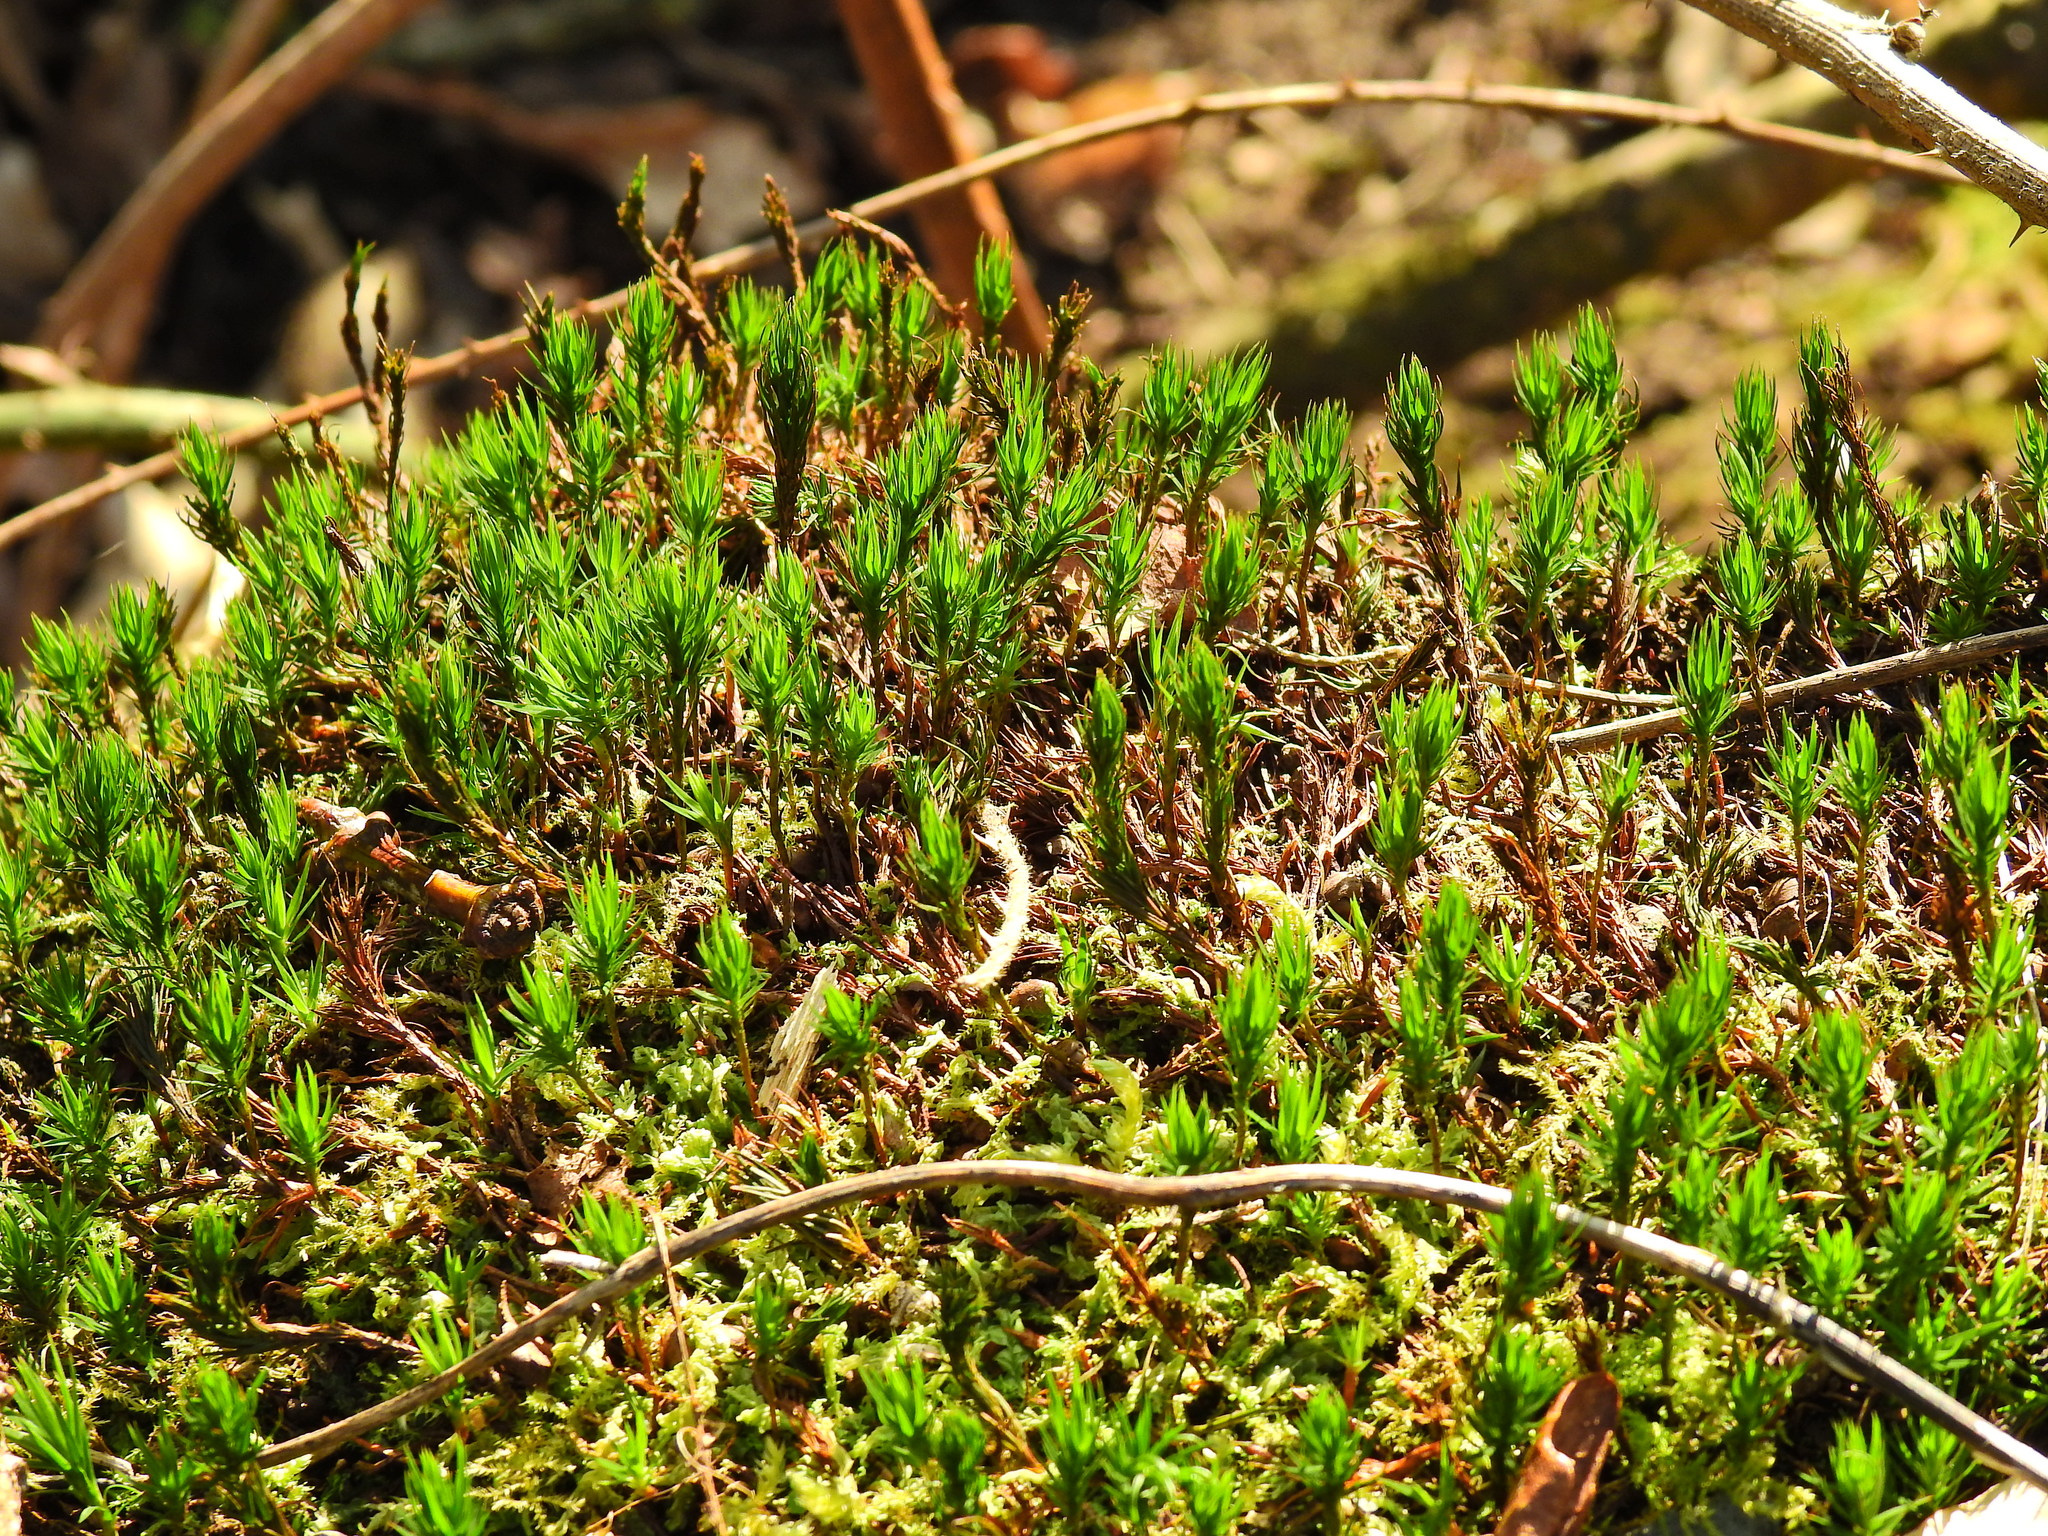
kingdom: Plantae
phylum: Bryophyta
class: Polytrichopsida
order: Polytrichales
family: Polytrichaceae
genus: Polytrichum
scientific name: Polytrichum formosum
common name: Bank haircap moss
